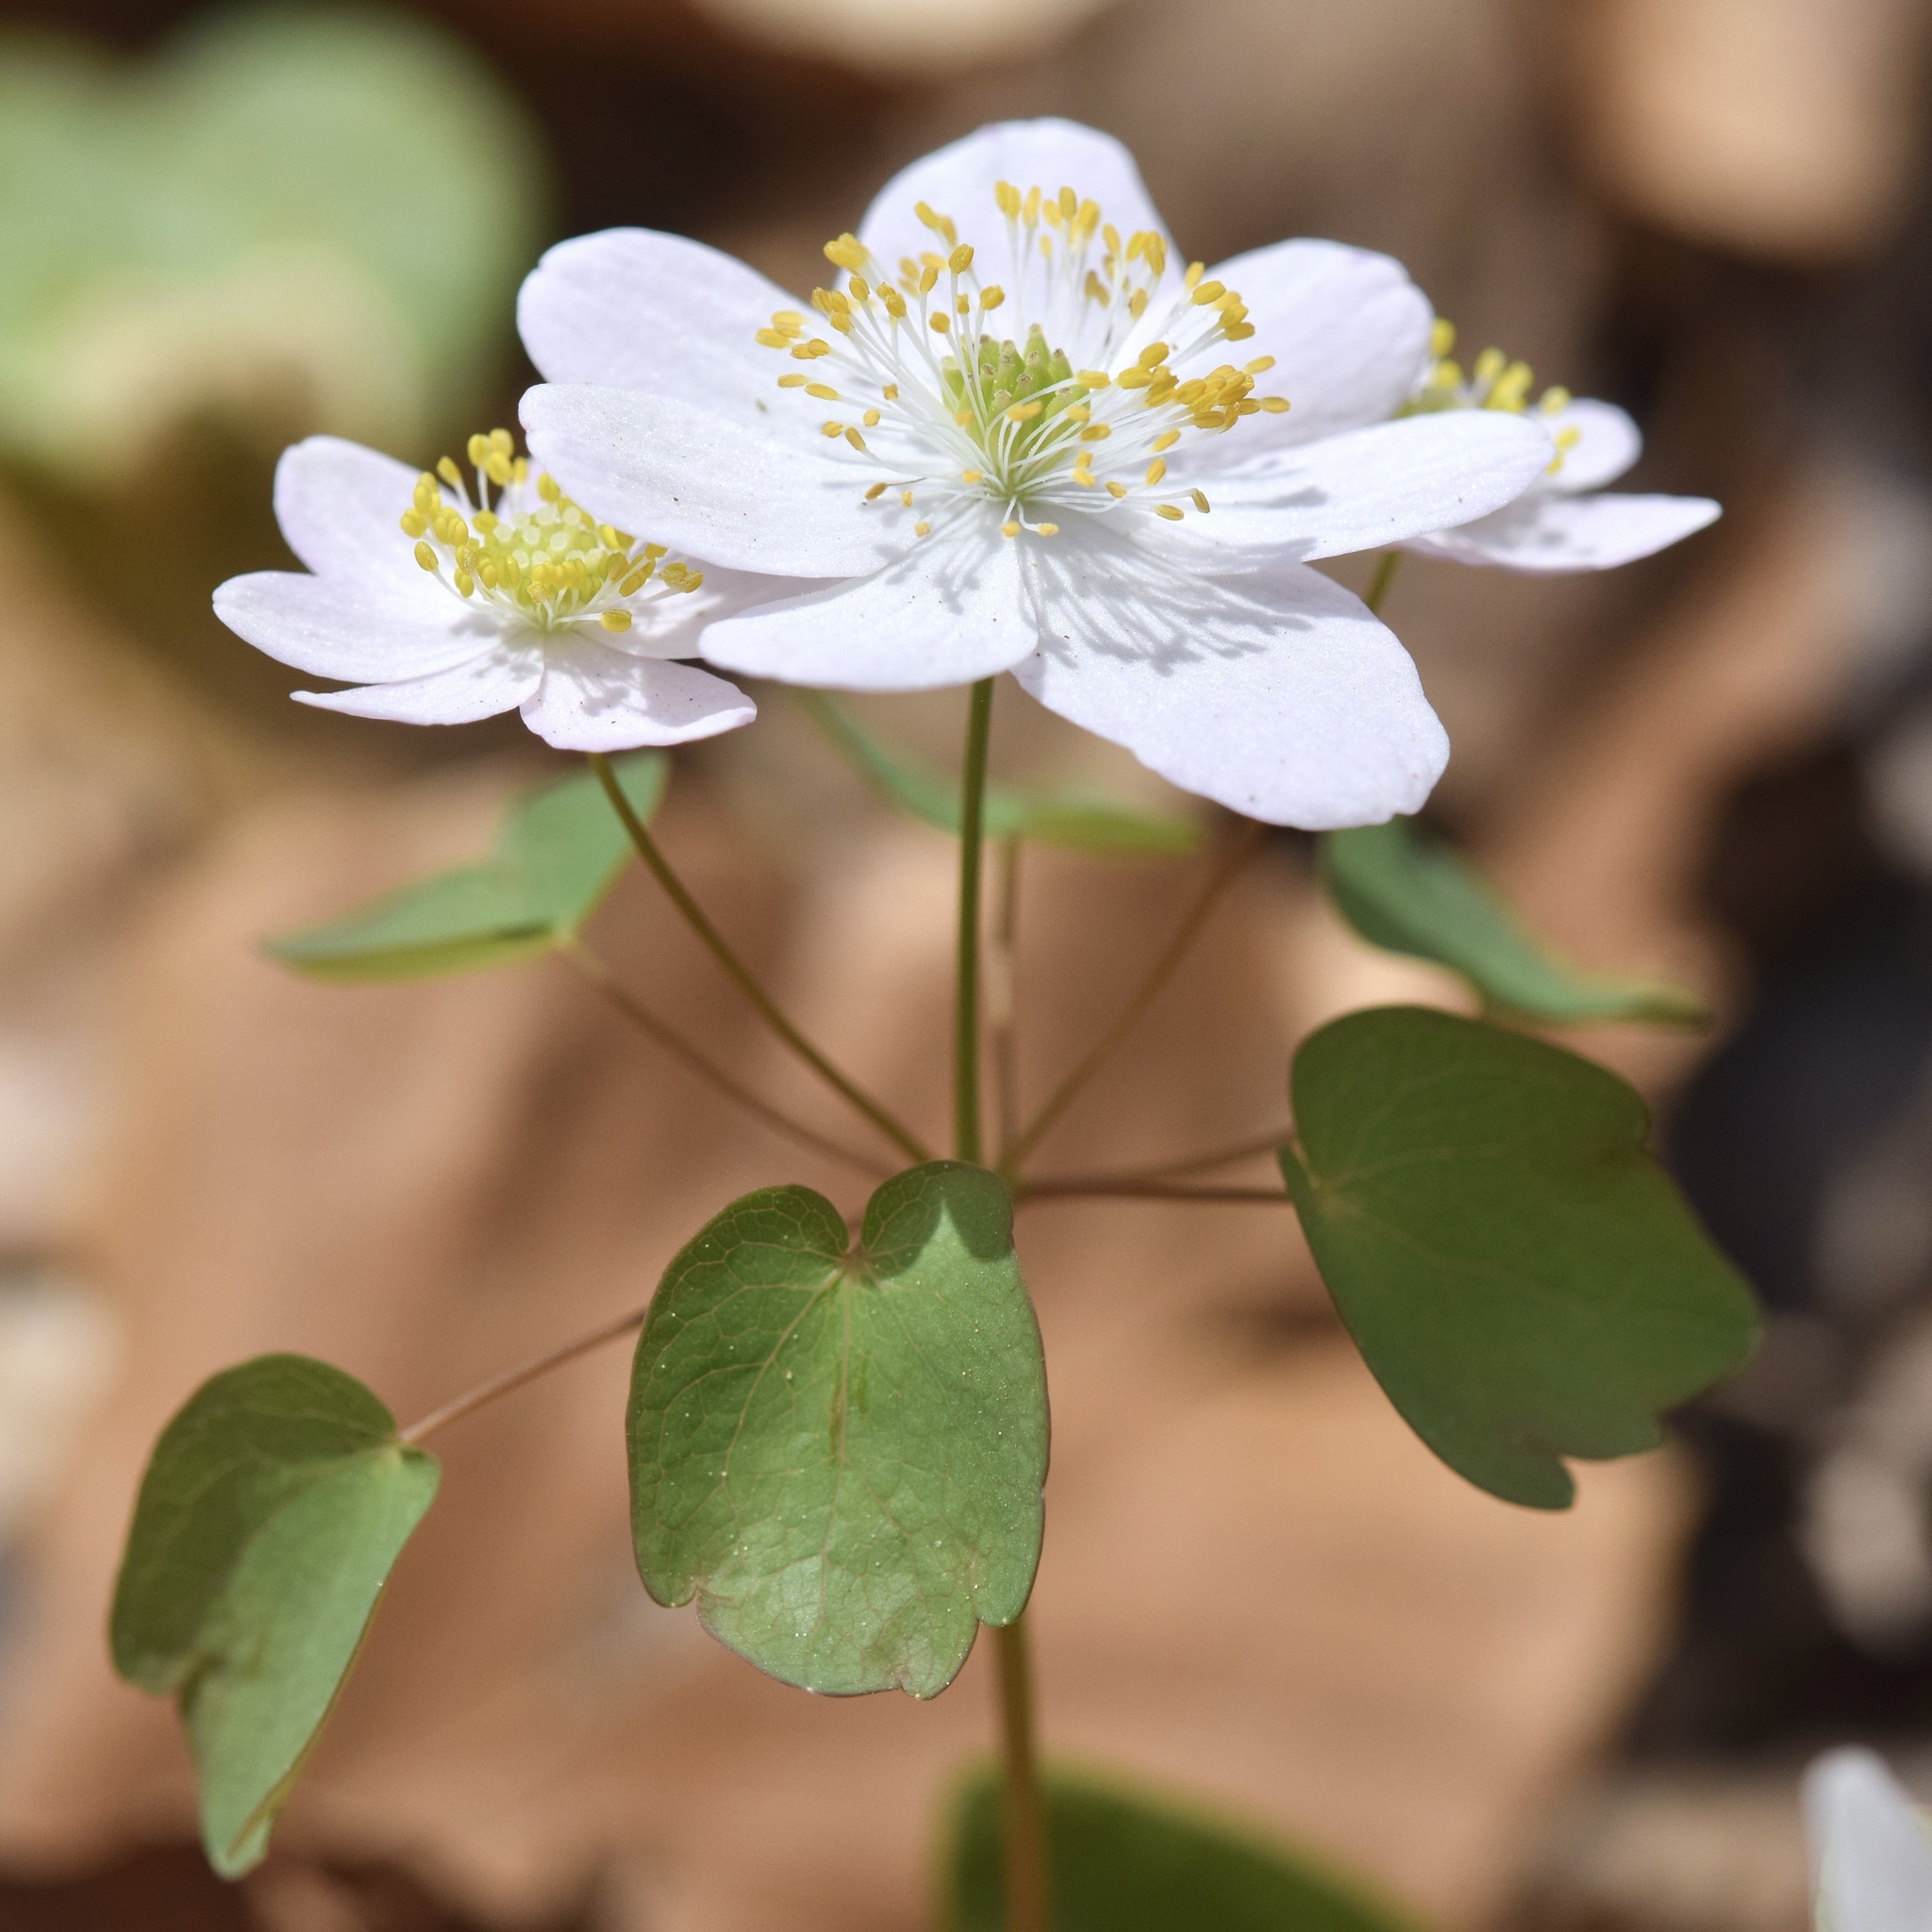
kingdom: Plantae
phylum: Tracheophyta
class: Magnoliopsida
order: Ranunculales
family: Ranunculaceae
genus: Thalictrum
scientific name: Thalictrum thalictroides
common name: Rue-anemone
